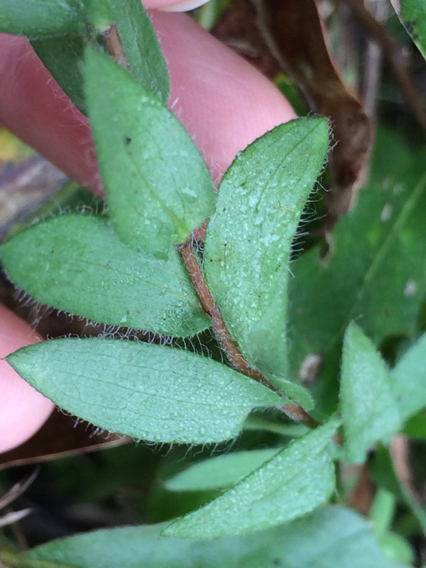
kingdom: Plantae
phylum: Tracheophyta
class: Magnoliopsida
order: Asterales
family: Asteraceae
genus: Symphyotrichum
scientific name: Symphyotrichum pratense
